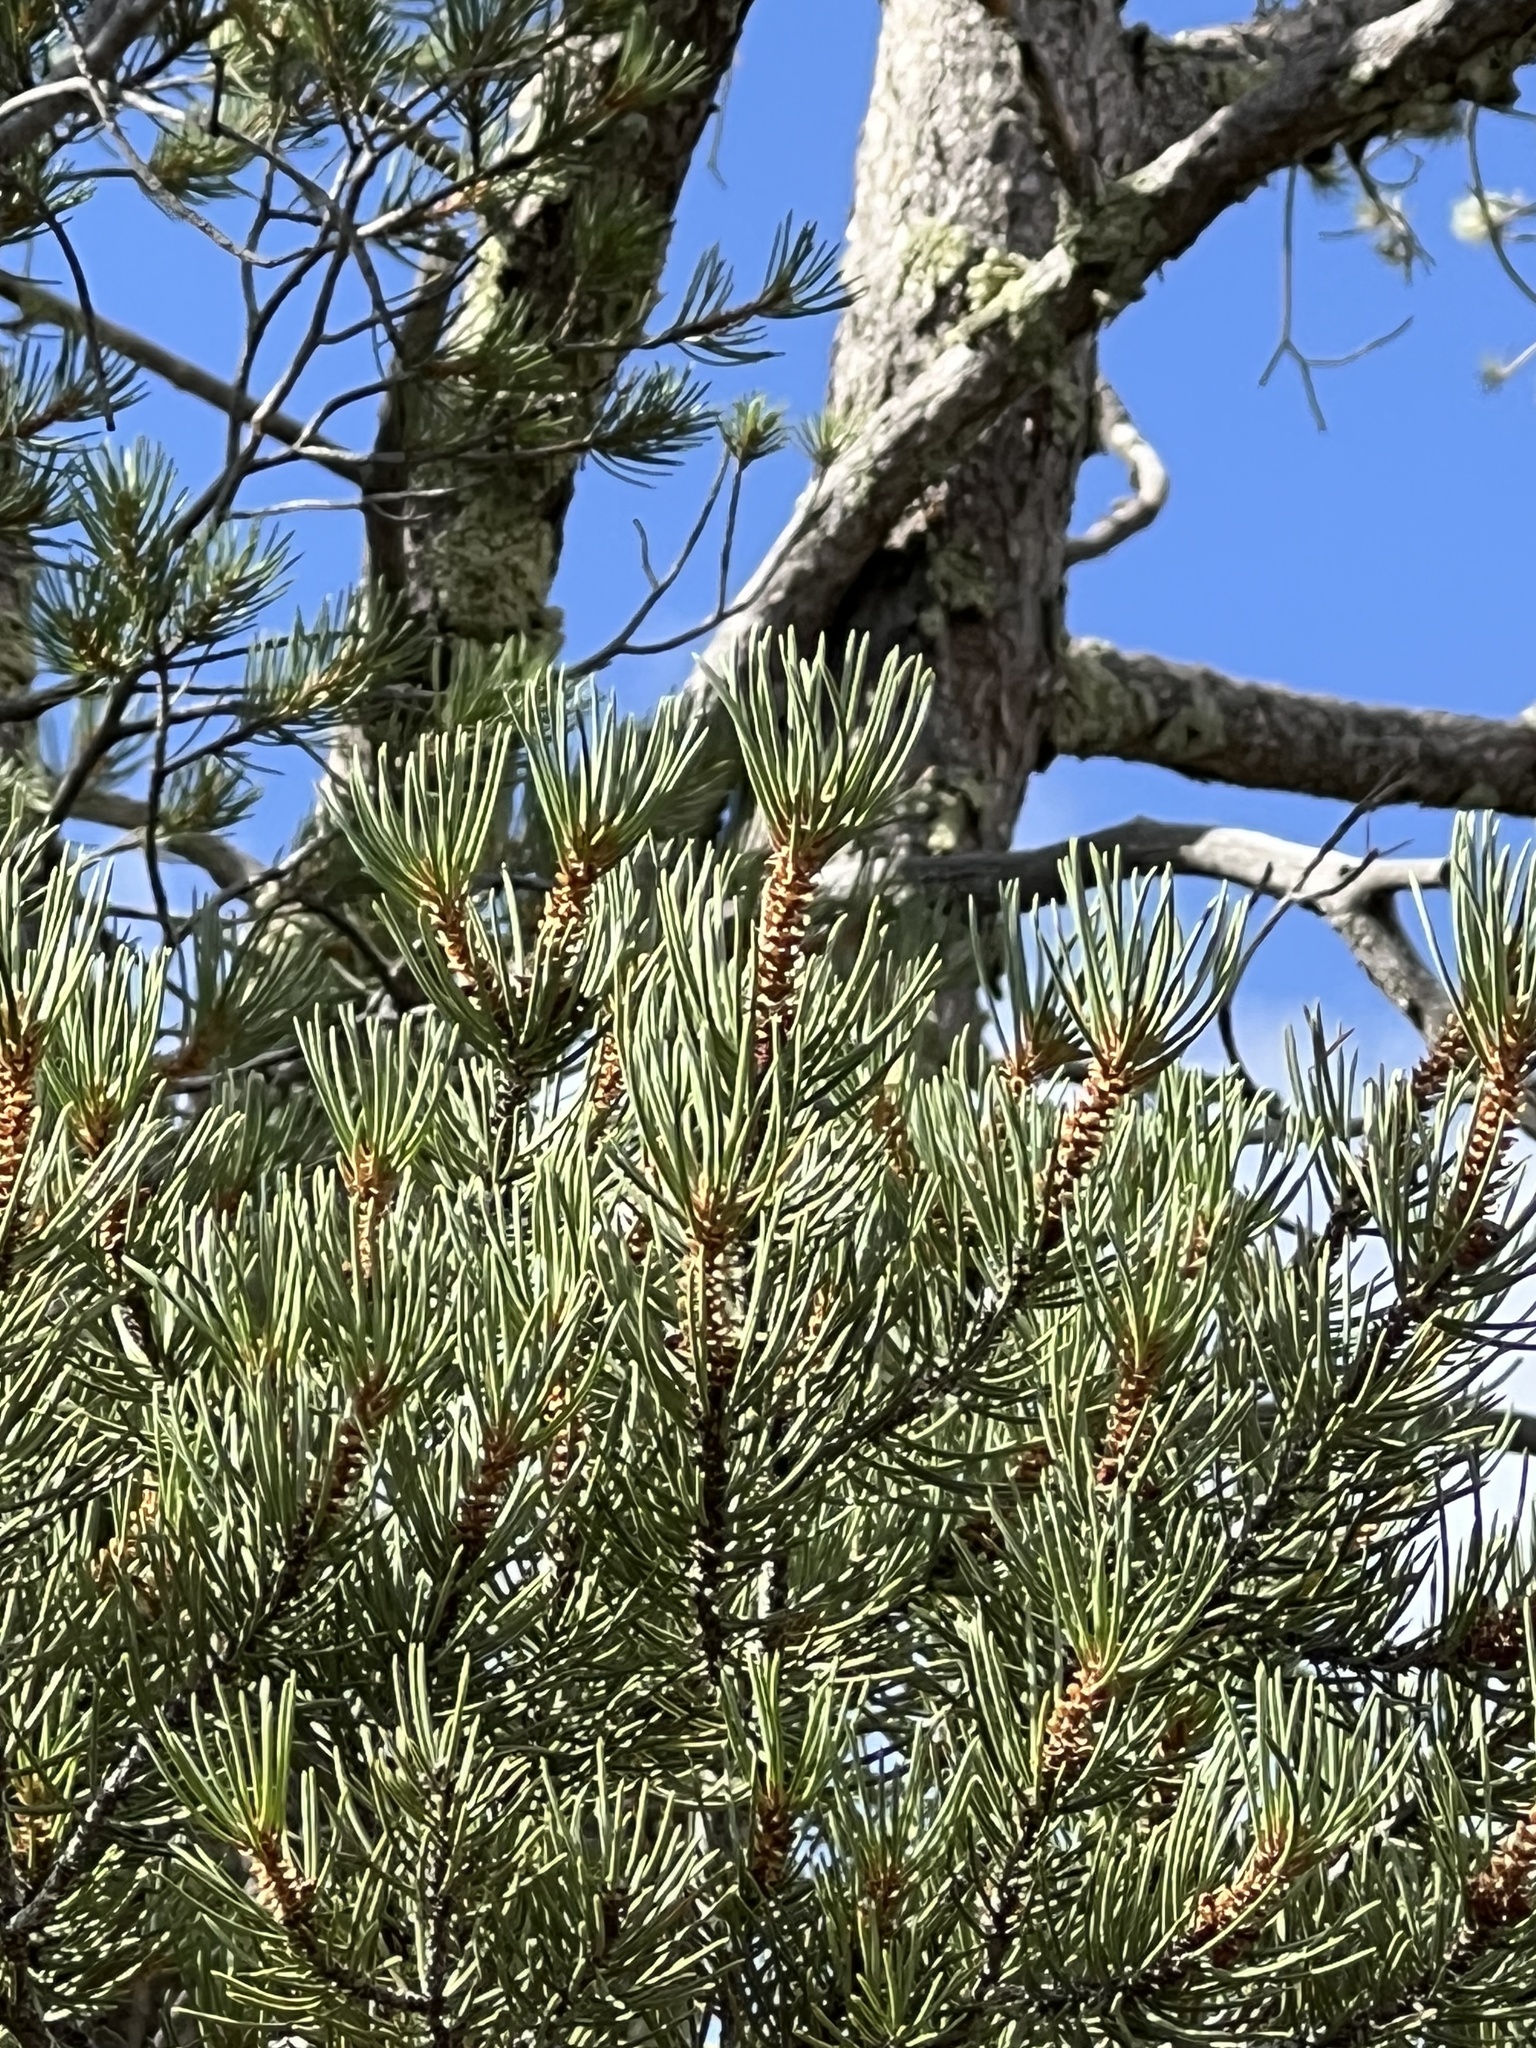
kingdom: Plantae
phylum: Tracheophyta
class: Pinopsida
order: Pinales
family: Pinaceae
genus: Pinus
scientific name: Pinus monophylla
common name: One-leaved nut pine
